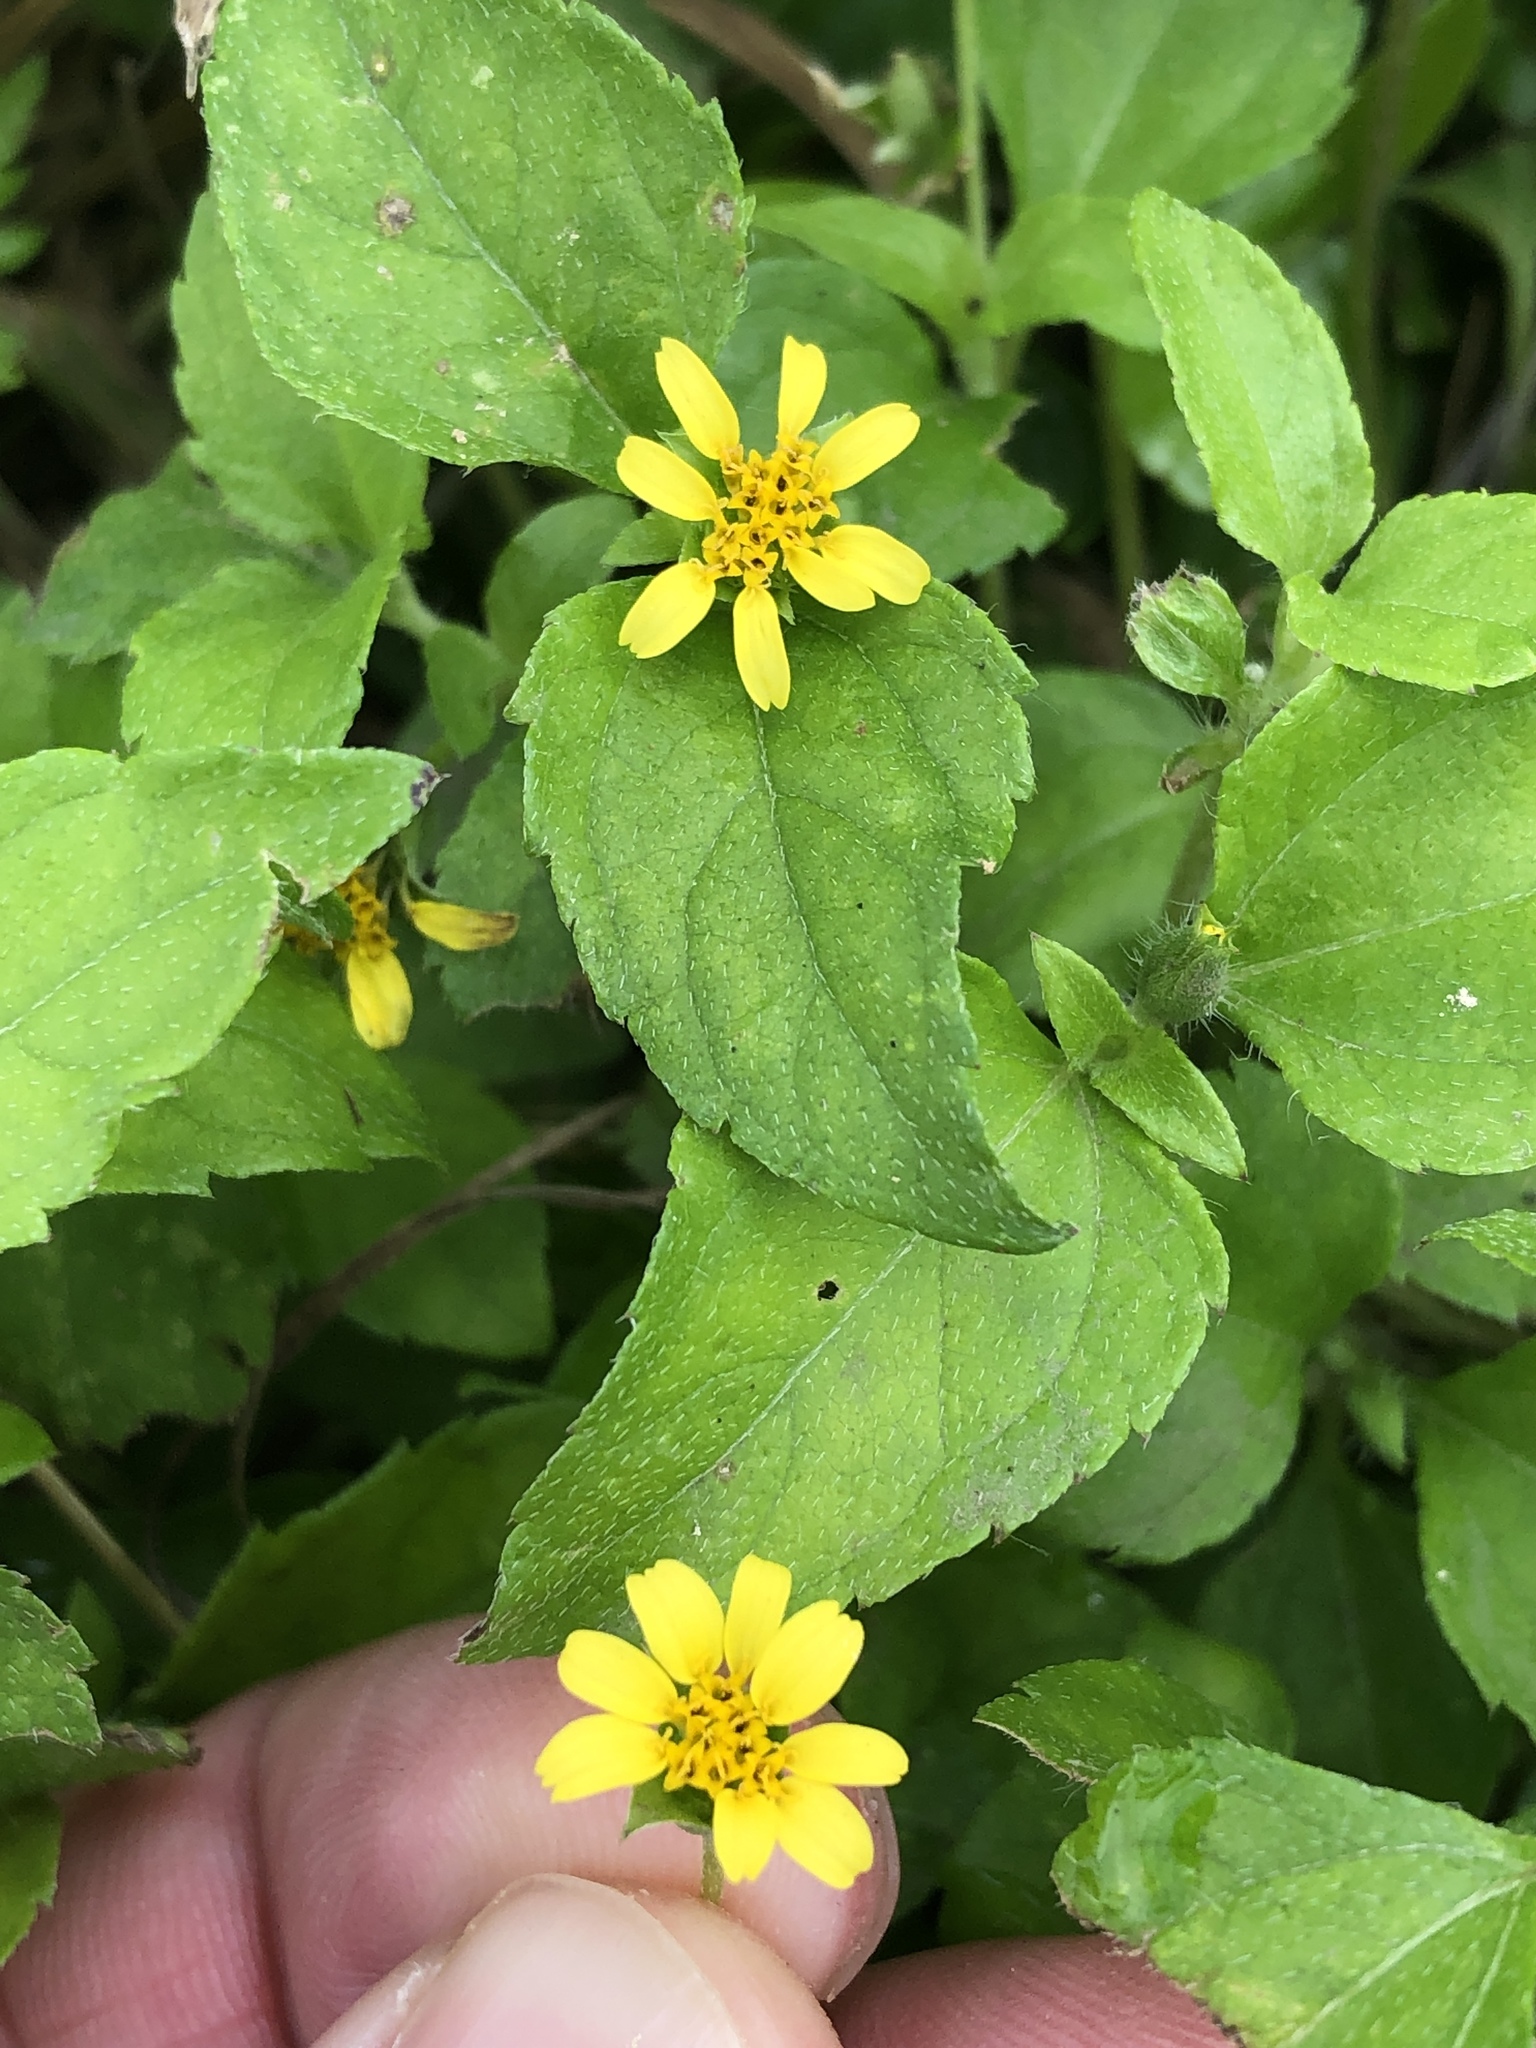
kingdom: Plantae
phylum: Tracheophyta
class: Magnoliopsida
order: Asterales
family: Asteraceae
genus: Calyptocarpus
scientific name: Calyptocarpus vialis
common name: Straggler daisy
